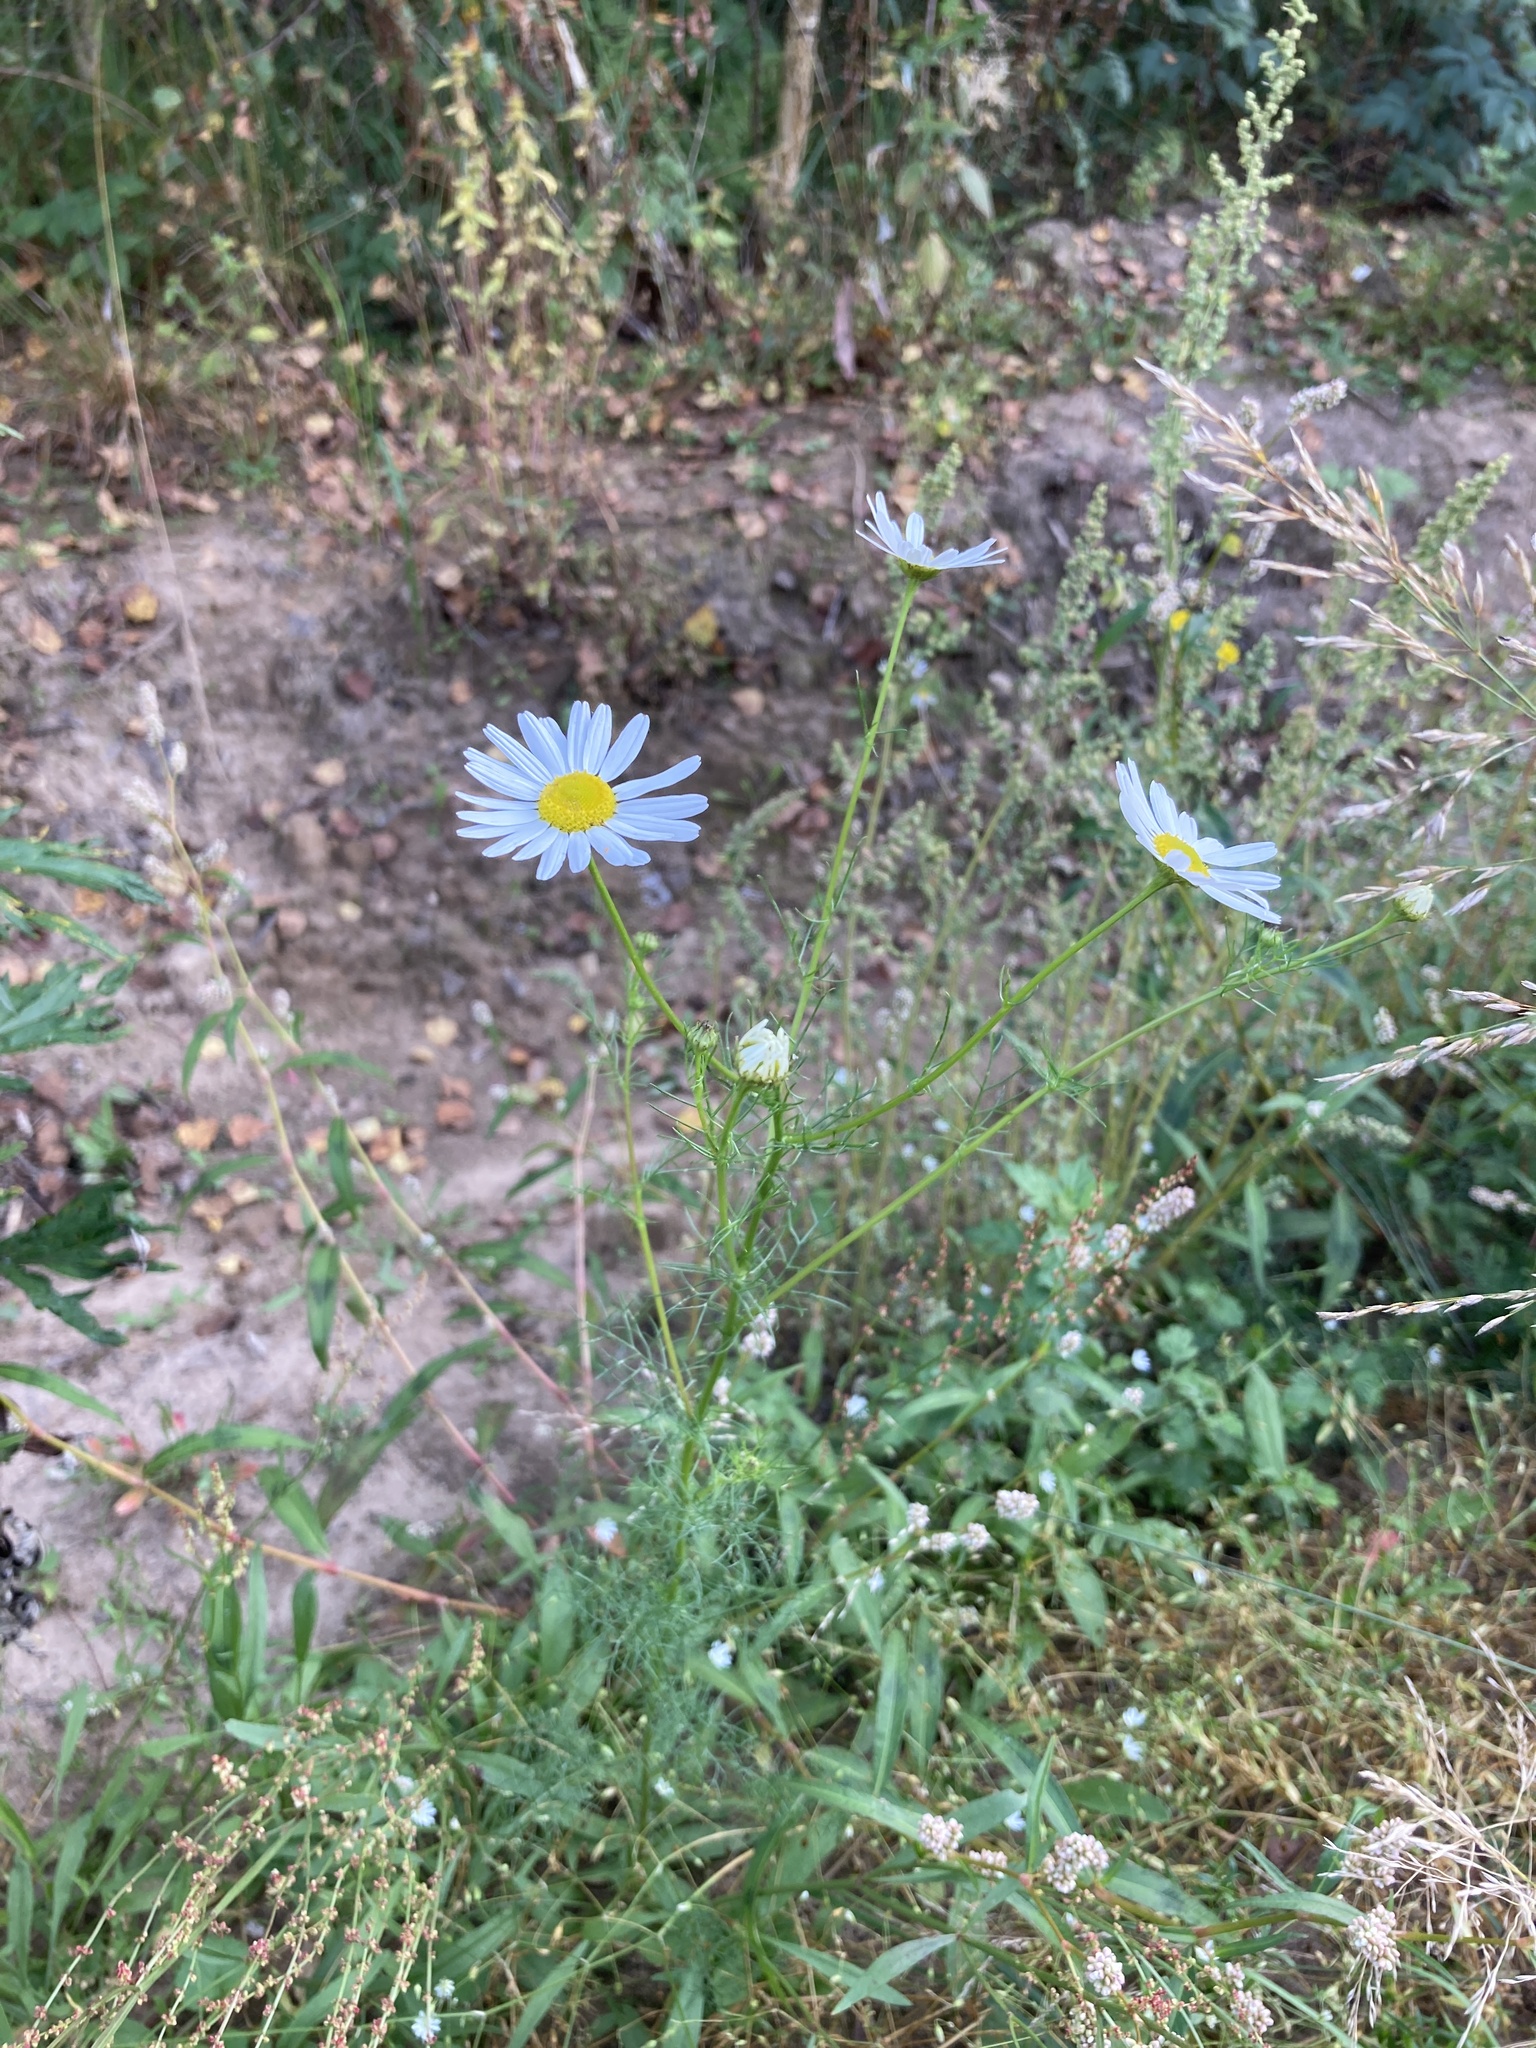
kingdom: Plantae
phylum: Tracheophyta
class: Magnoliopsida
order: Asterales
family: Asteraceae
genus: Tripleurospermum
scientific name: Tripleurospermum inodorum
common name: Scentless mayweed
